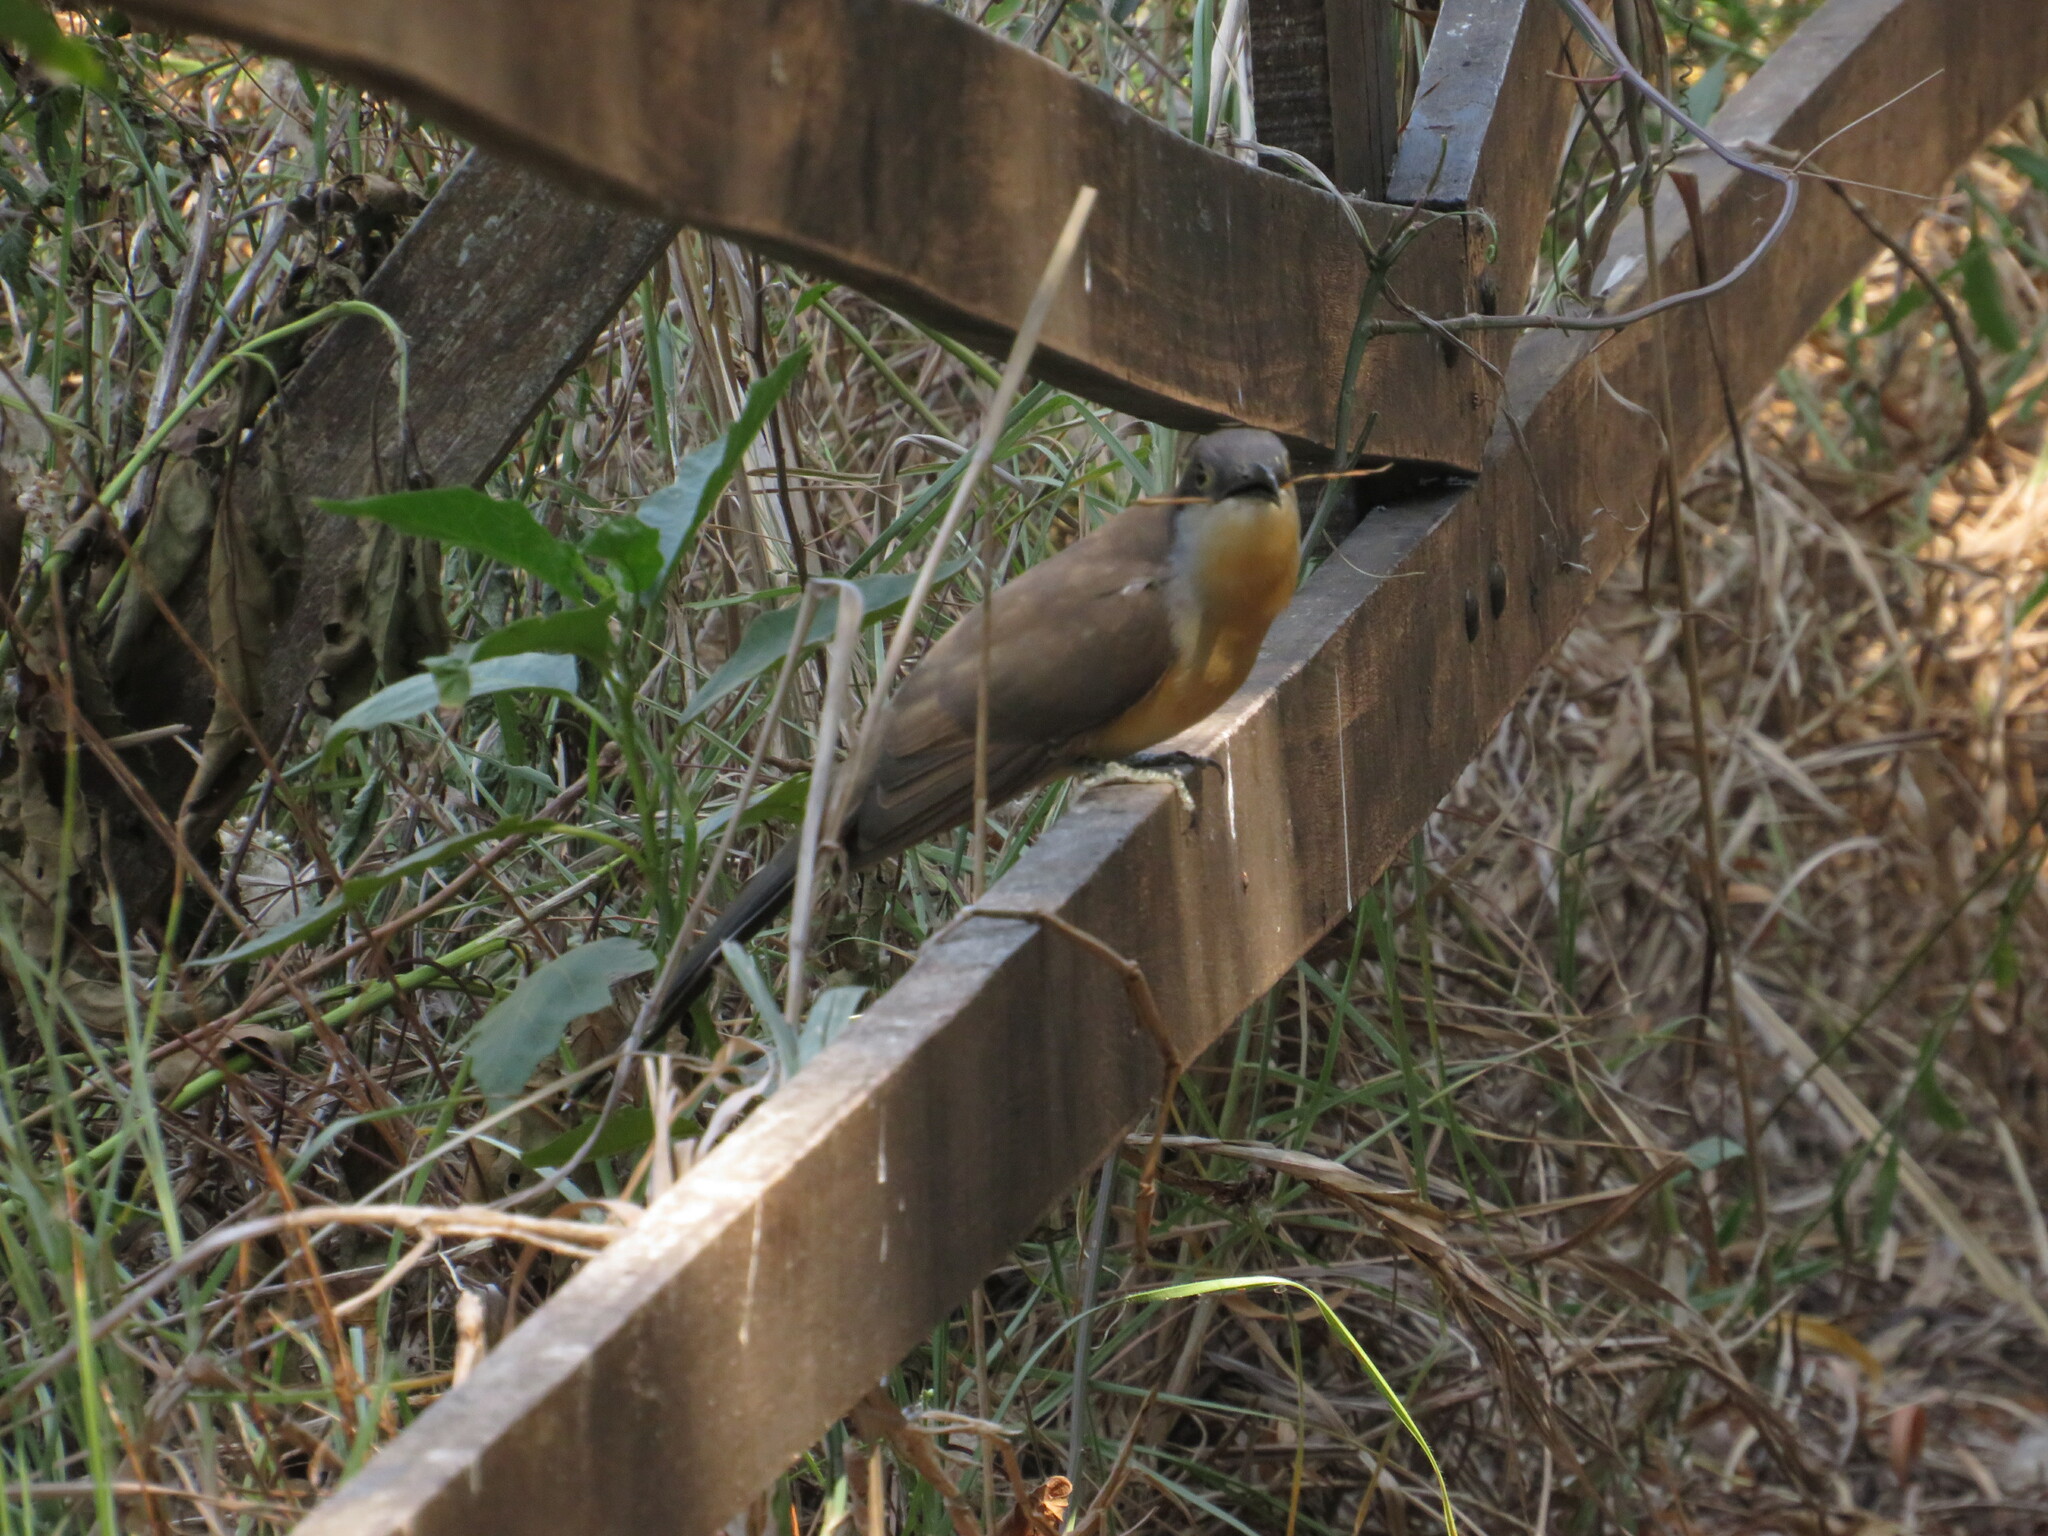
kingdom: Animalia
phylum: Chordata
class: Aves
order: Cuculiformes
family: Cuculidae
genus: Coccyzus
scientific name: Coccyzus melacoryphus
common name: Dark-billed cuckoo
